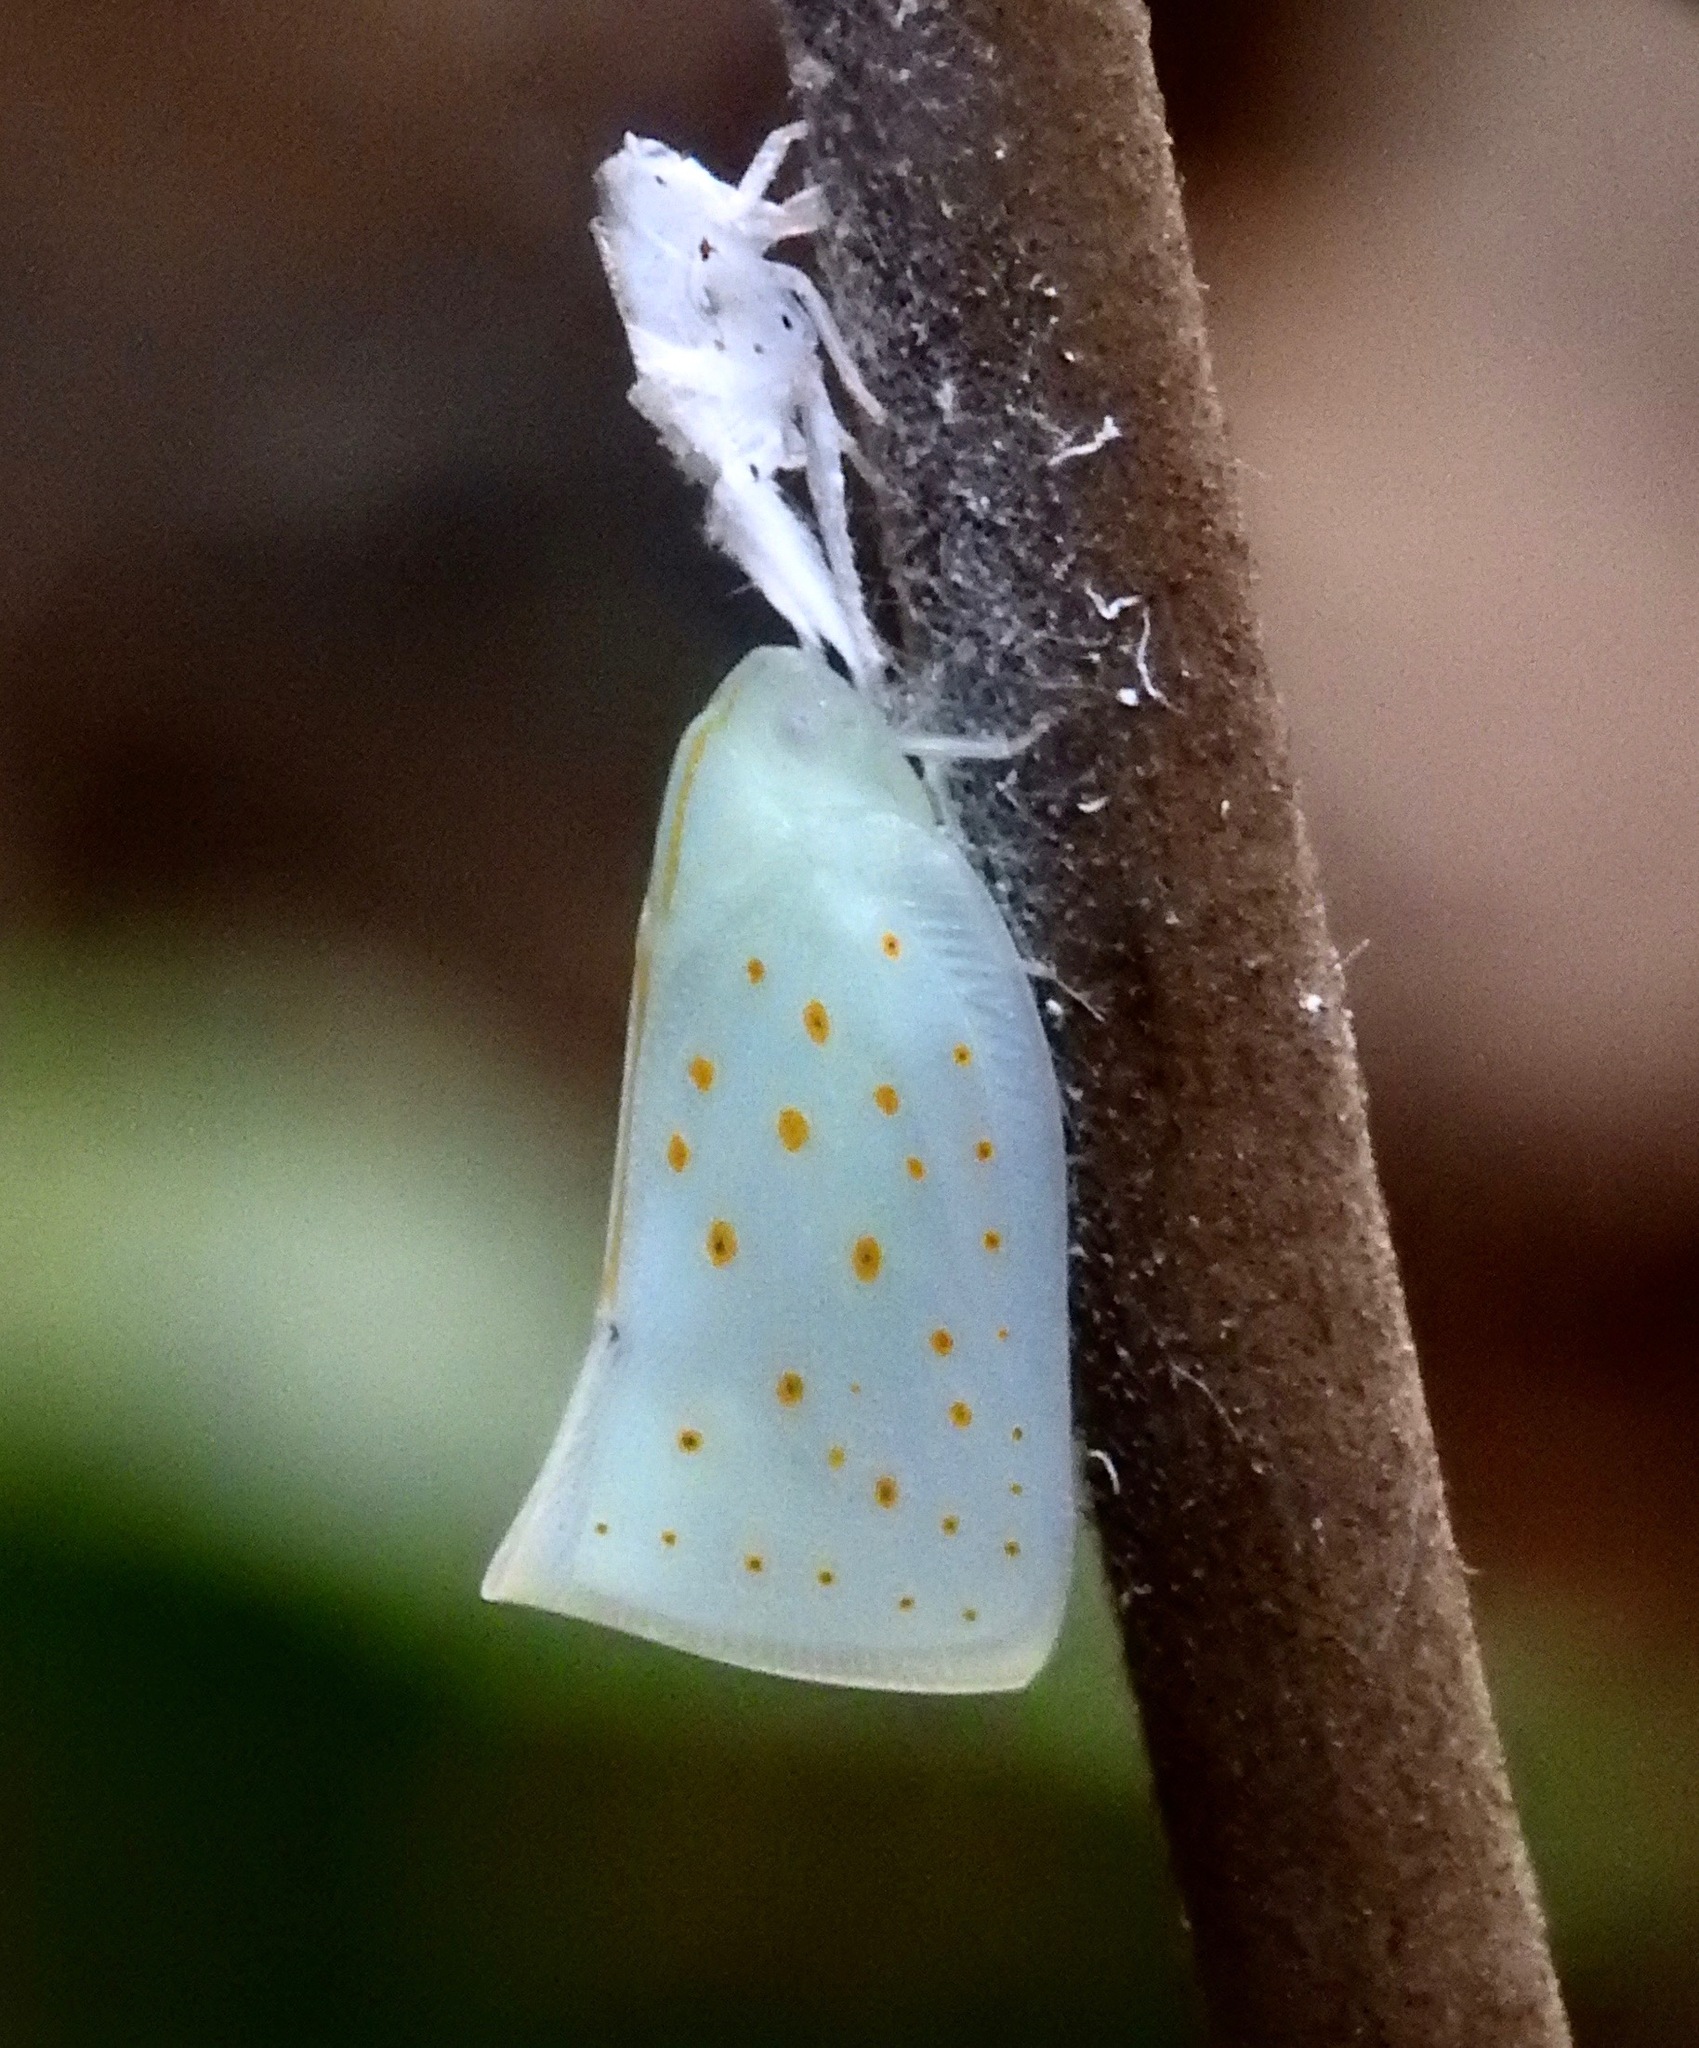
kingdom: Animalia
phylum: Arthropoda
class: Insecta
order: Hemiptera
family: Flatidae
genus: Flata
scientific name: Flata stellaris
